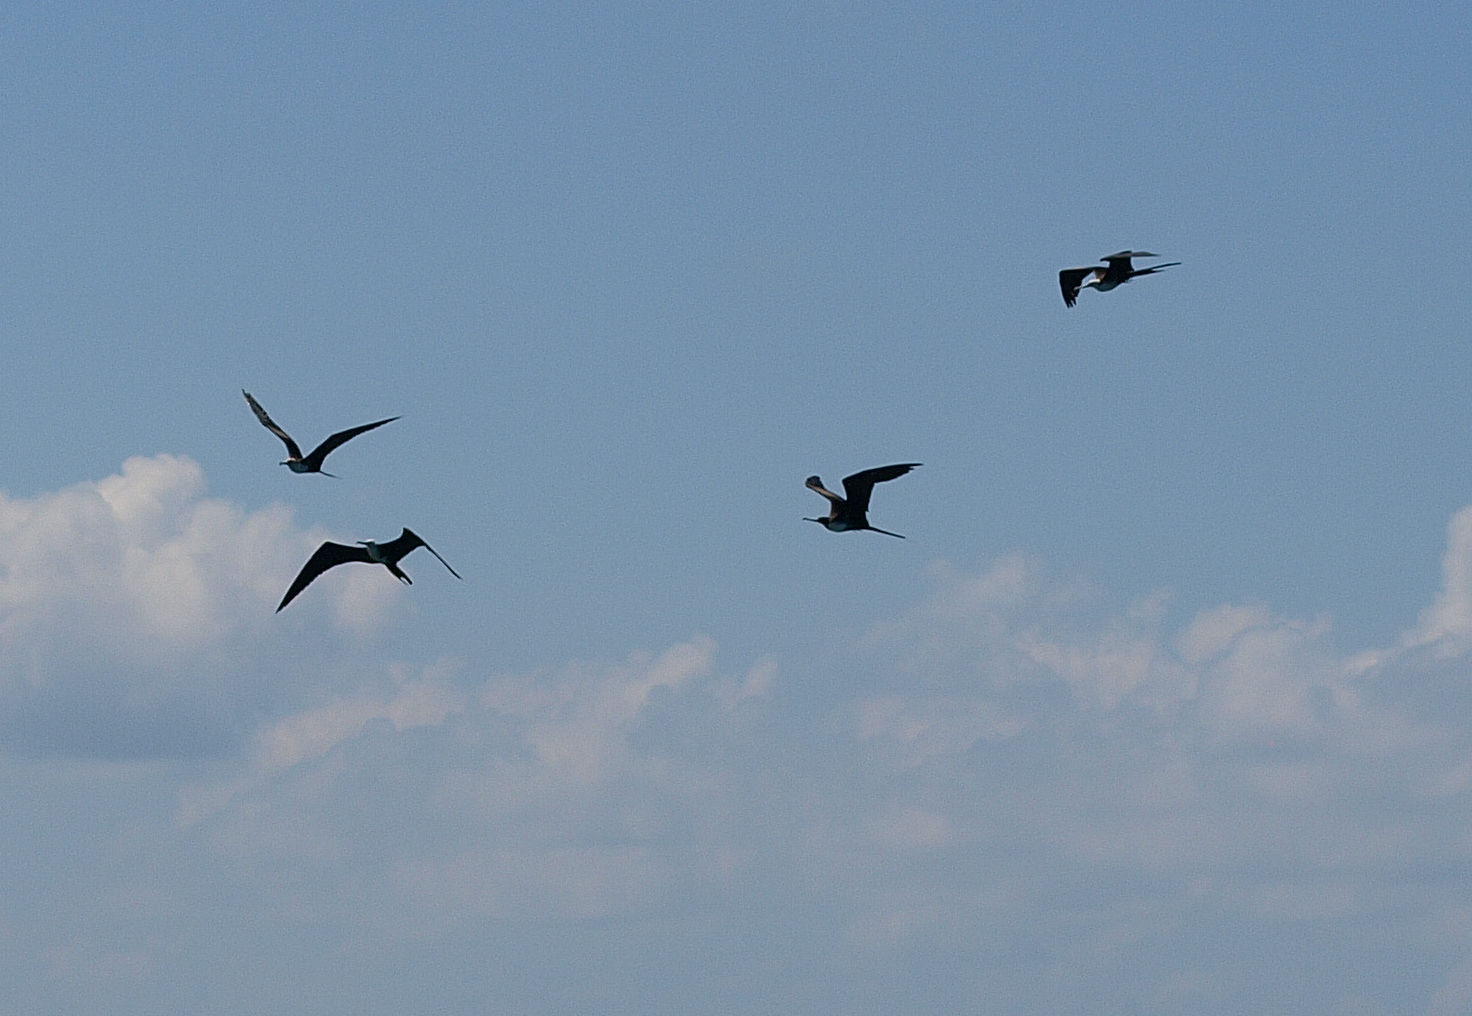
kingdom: Animalia
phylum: Chordata
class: Aves
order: Suliformes
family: Fregatidae
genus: Fregata
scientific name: Fregata magnificens
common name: Magnificent frigatebird
